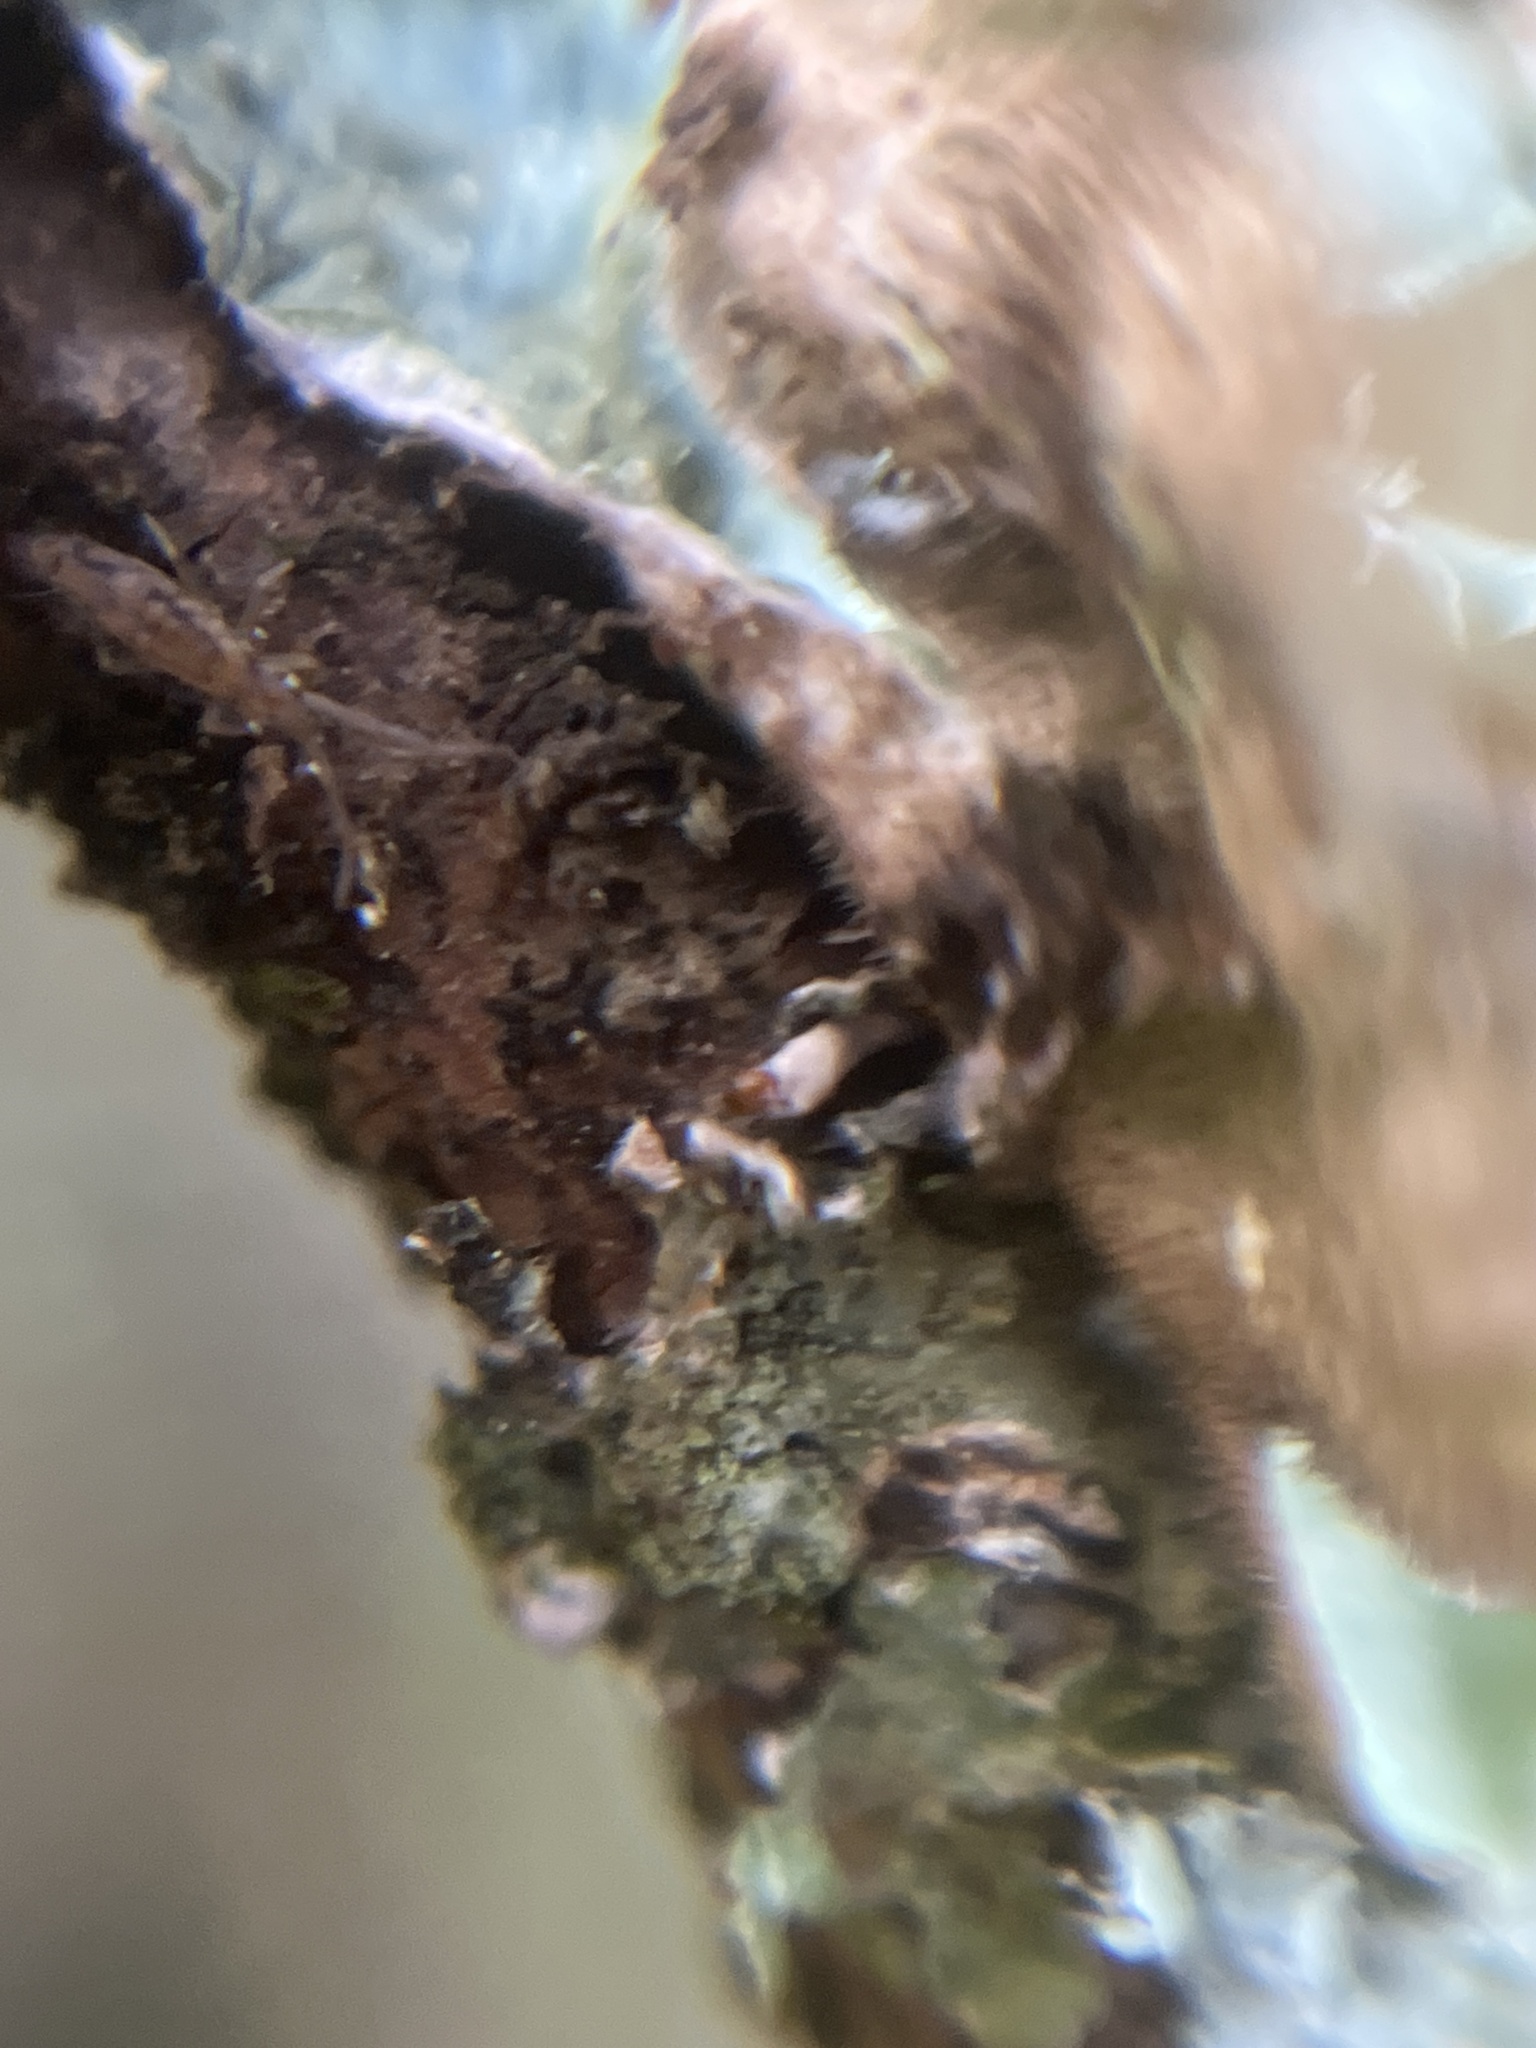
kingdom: Fungi
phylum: Ascomycota
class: Lecanoromycetes
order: Lecanorales
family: Parmeliaceae
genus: Punctelia
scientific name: Punctelia jeckeri
